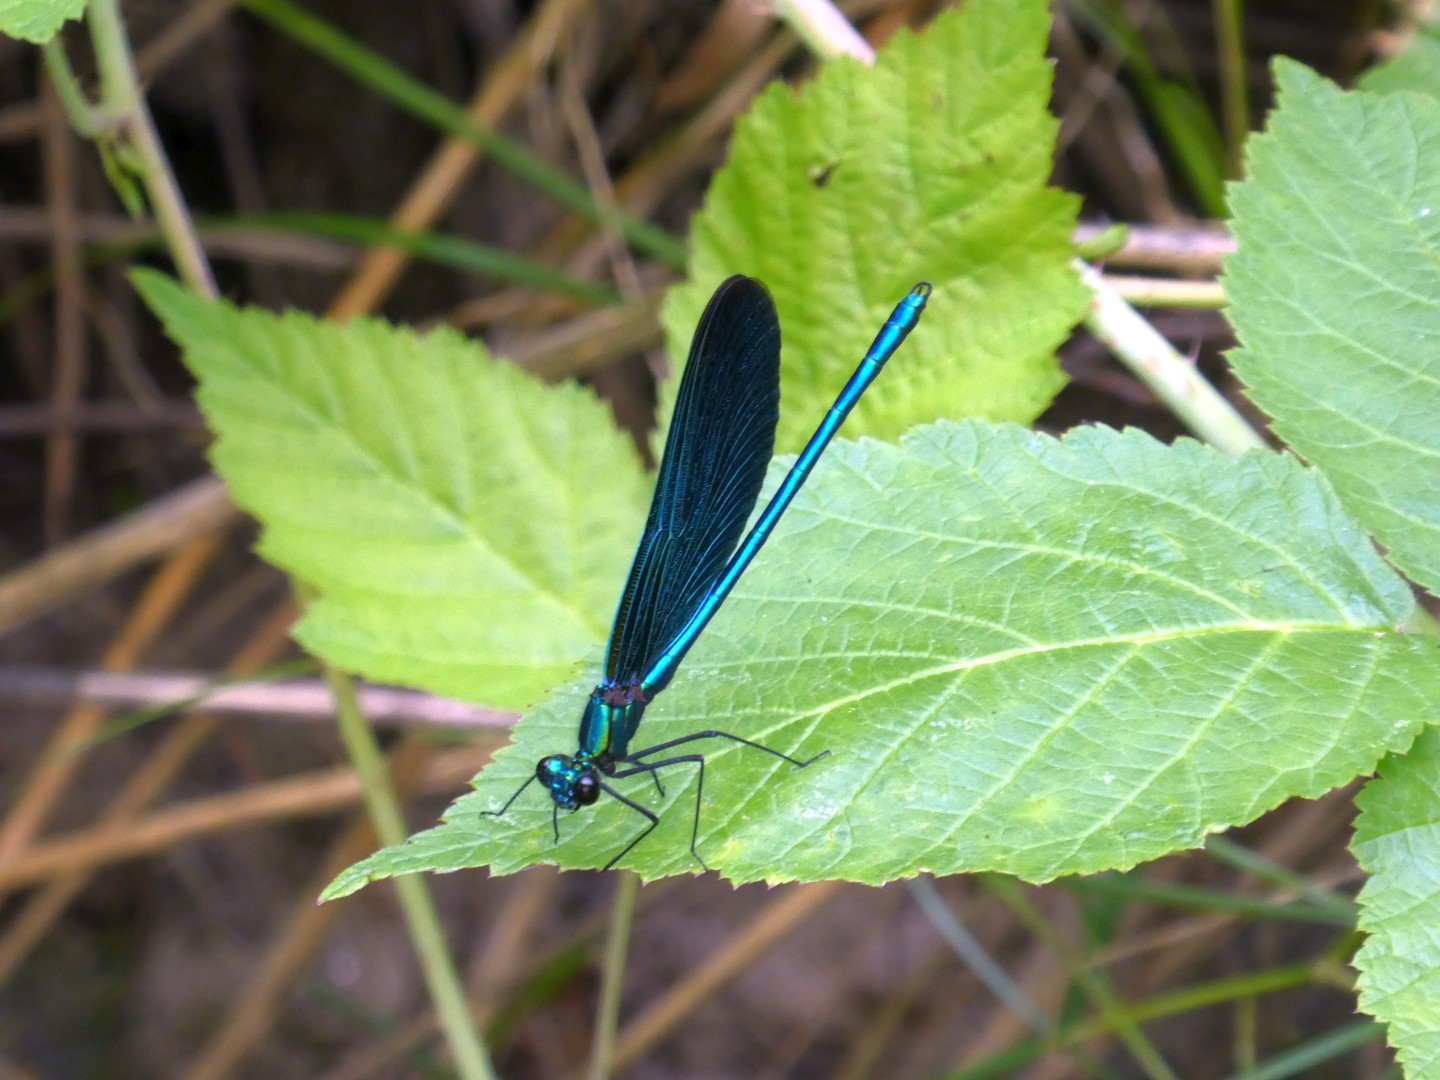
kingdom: Animalia
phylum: Arthropoda
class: Insecta
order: Odonata
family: Calopterygidae
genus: Calopteryx
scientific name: Calopteryx virgo
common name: Beautiful demoiselle
